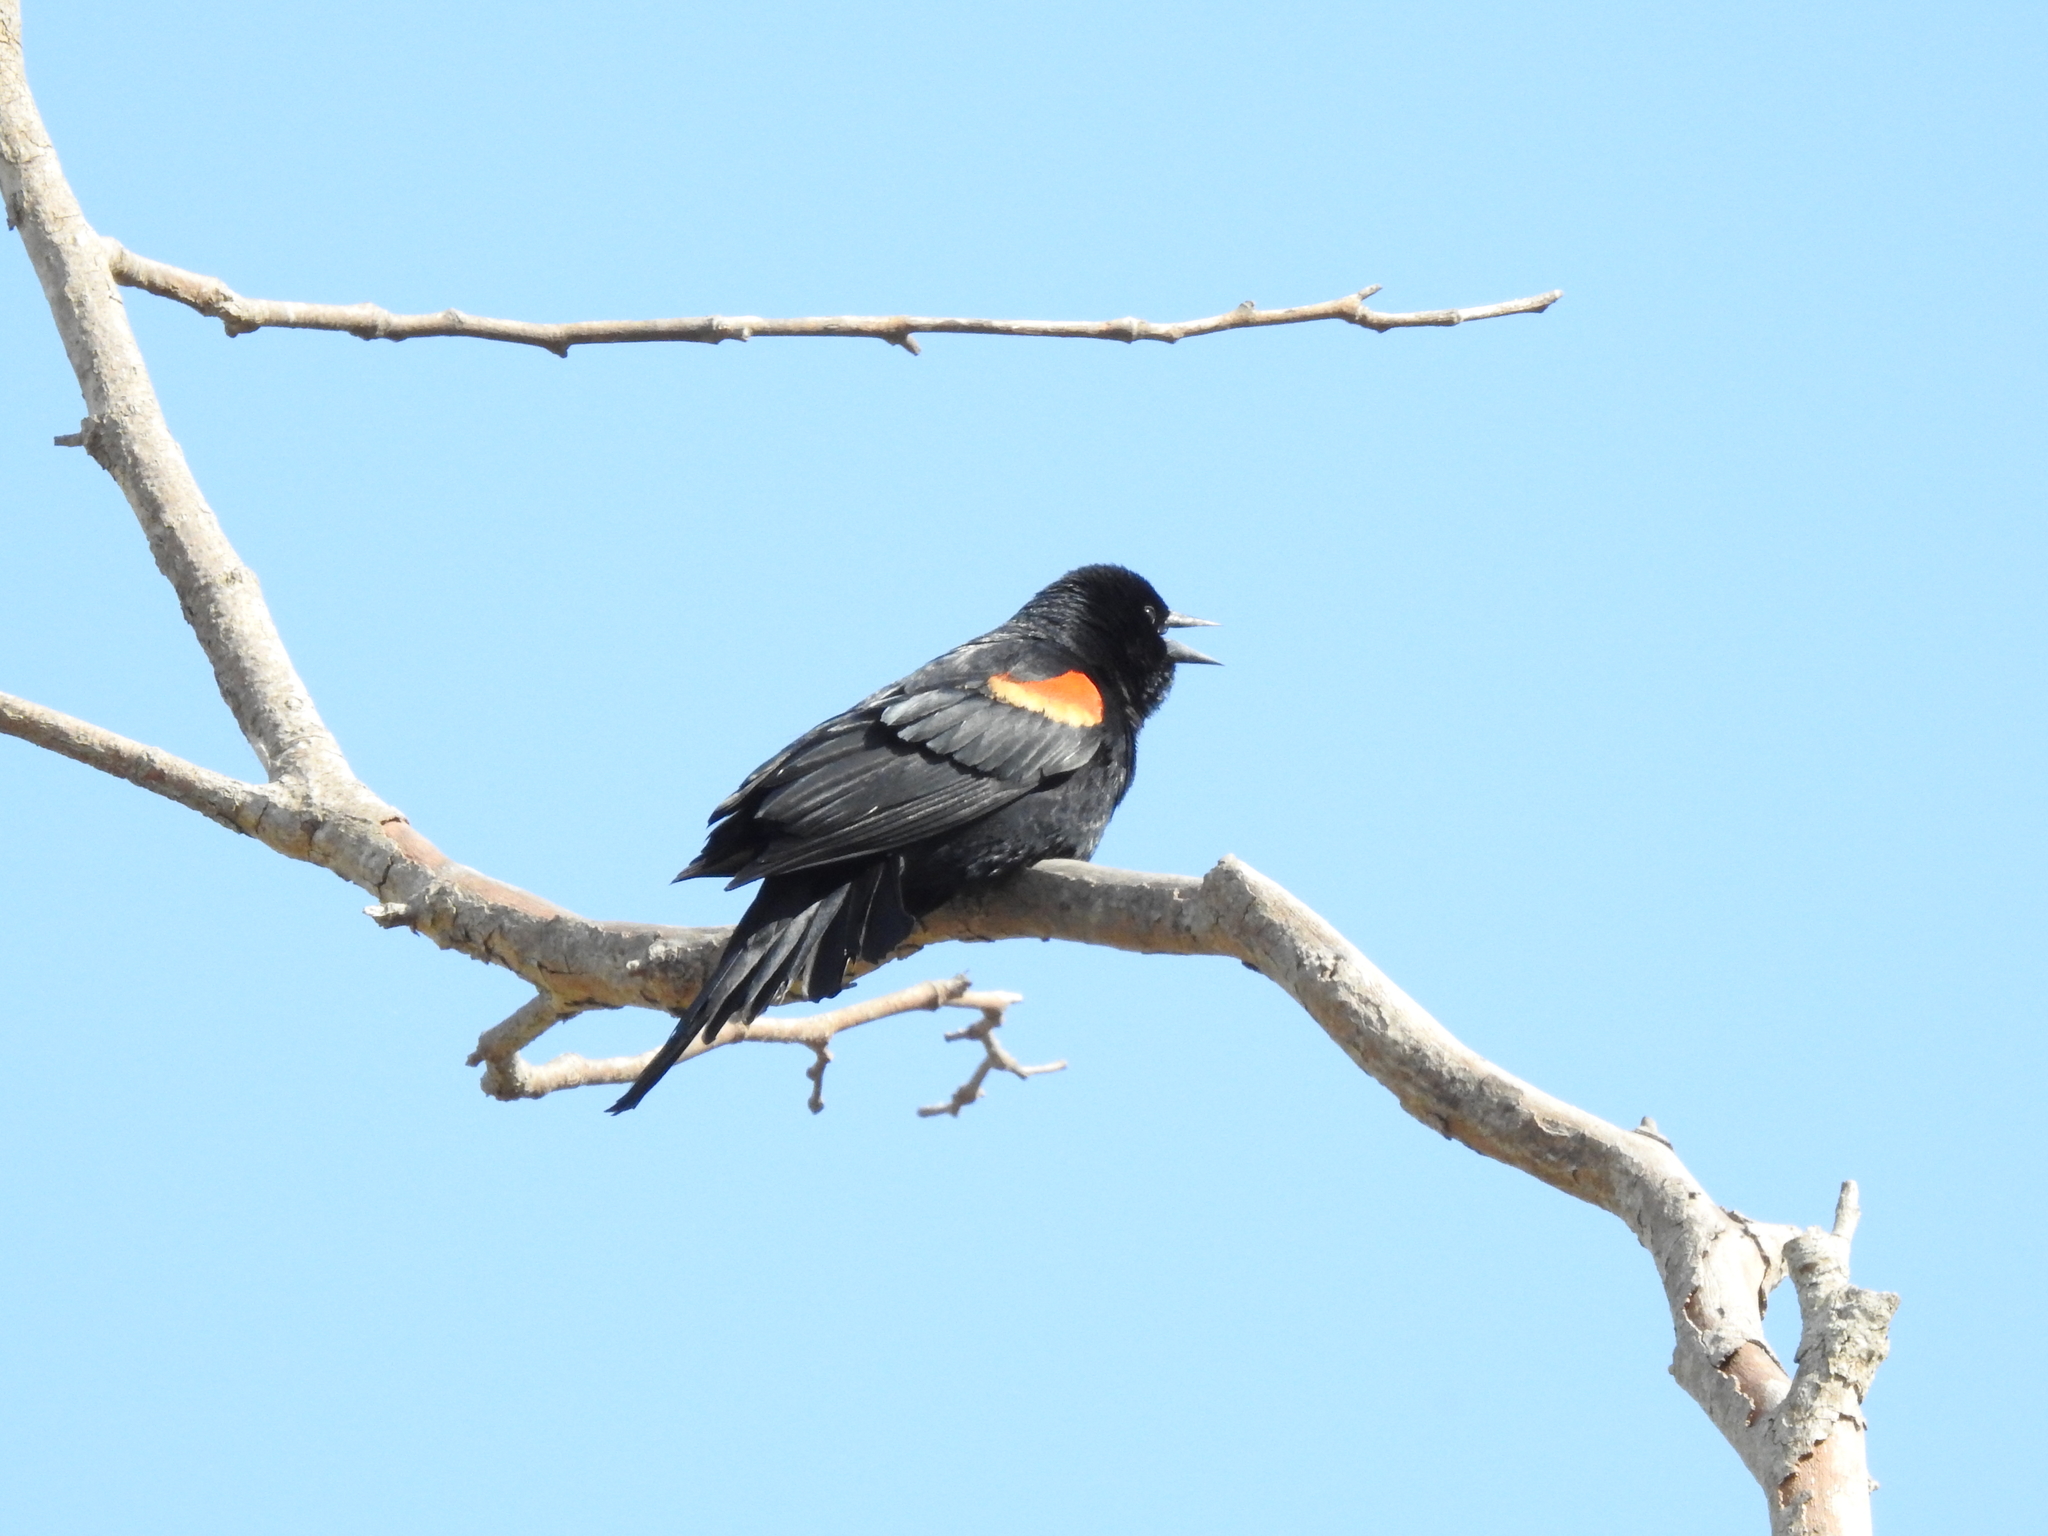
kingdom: Animalia
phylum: Chordata
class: Aves
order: Passeriformes
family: Icteridae
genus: Agelaius
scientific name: Agelaius phoeniceus
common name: Red-winged blackbird
